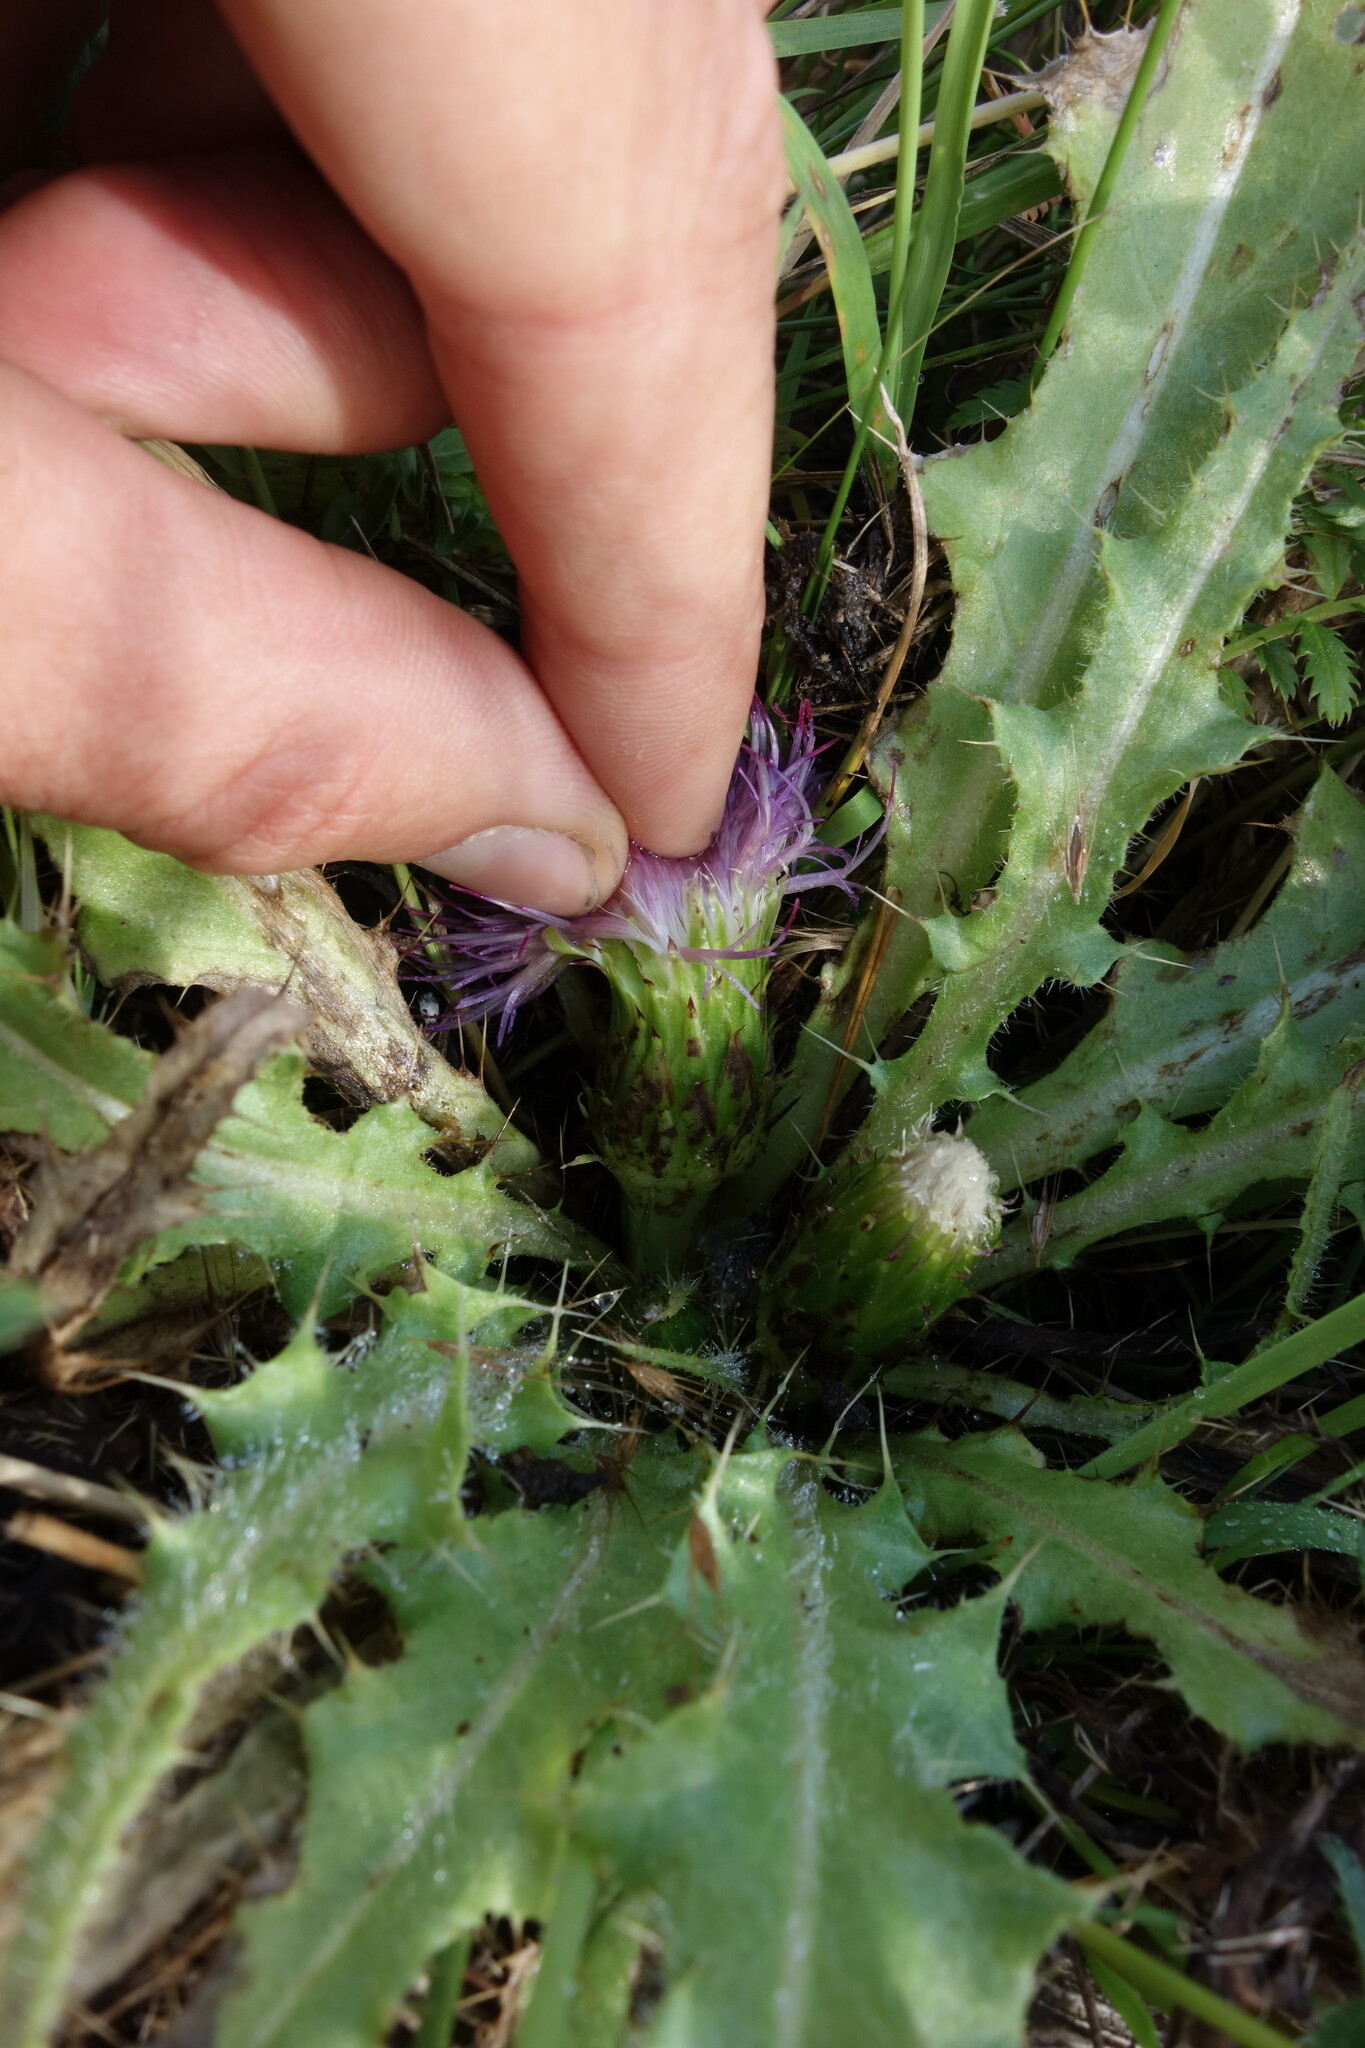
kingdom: Plantae
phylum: Tracheophyta
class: Magnoliopsida
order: Asterales
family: Asteraceae
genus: Cirsium
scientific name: Cirsium esculentum
